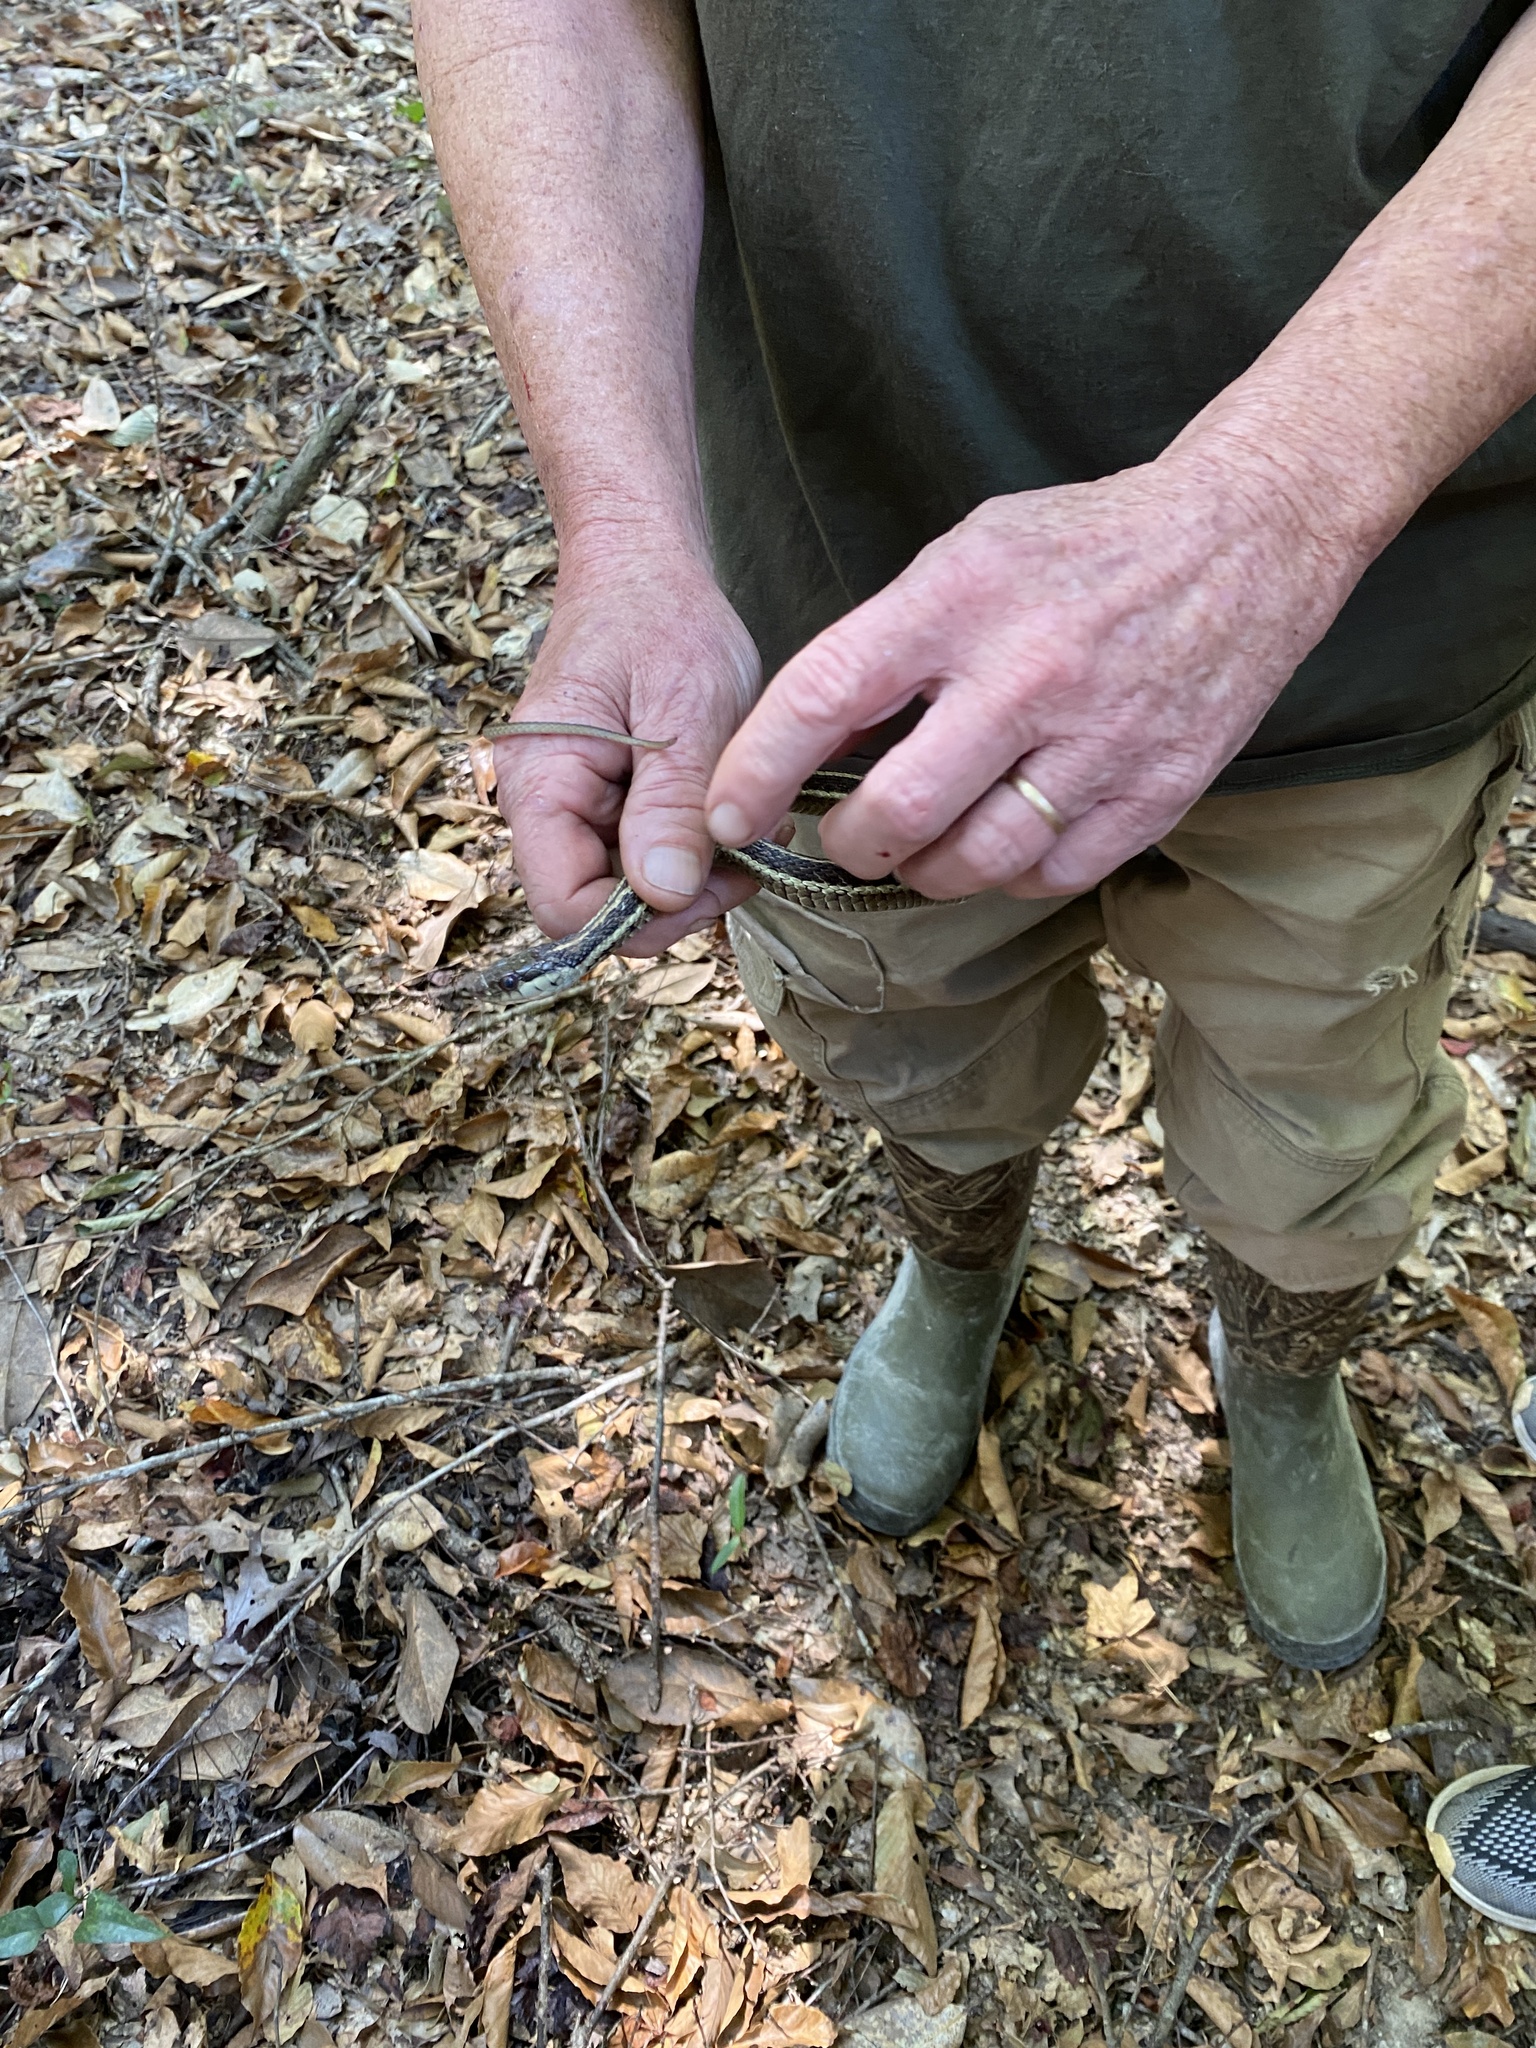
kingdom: Animalia
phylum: Chordata
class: Squamata
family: Colubridae
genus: Thamnophis
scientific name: Thamnophis sirtalis
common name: Common garter snake
